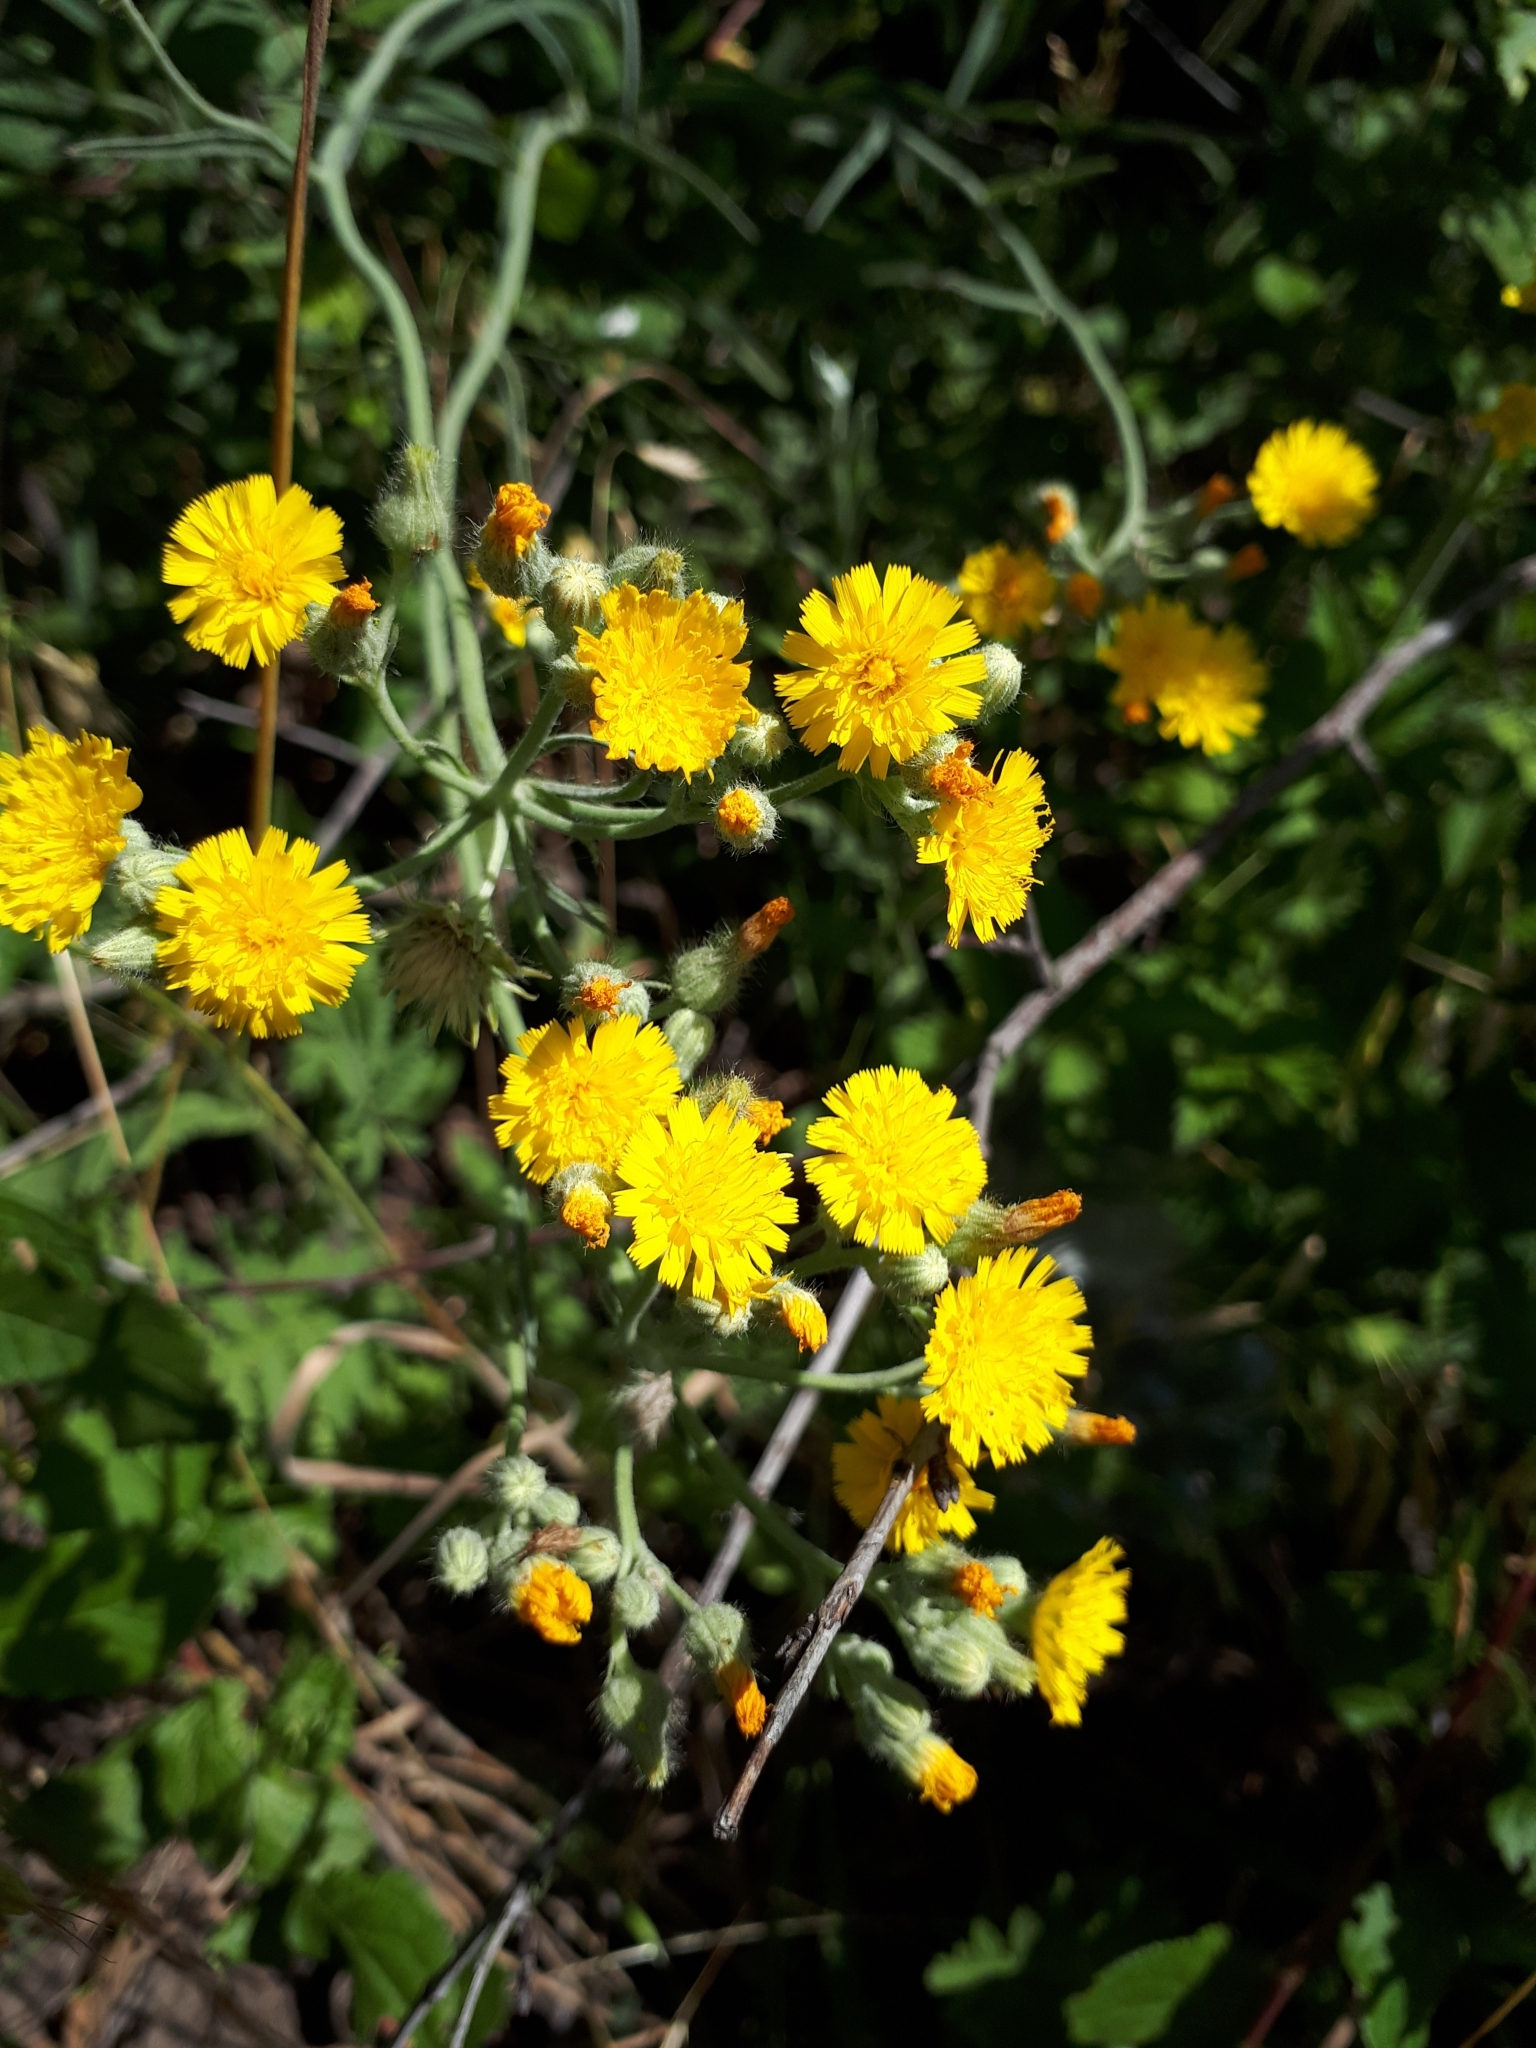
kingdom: Plantae
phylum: Tracheophyta
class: Magnoliopsida
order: Asterales
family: Asteraceae
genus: Pilosella
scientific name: Pilosella echioides
